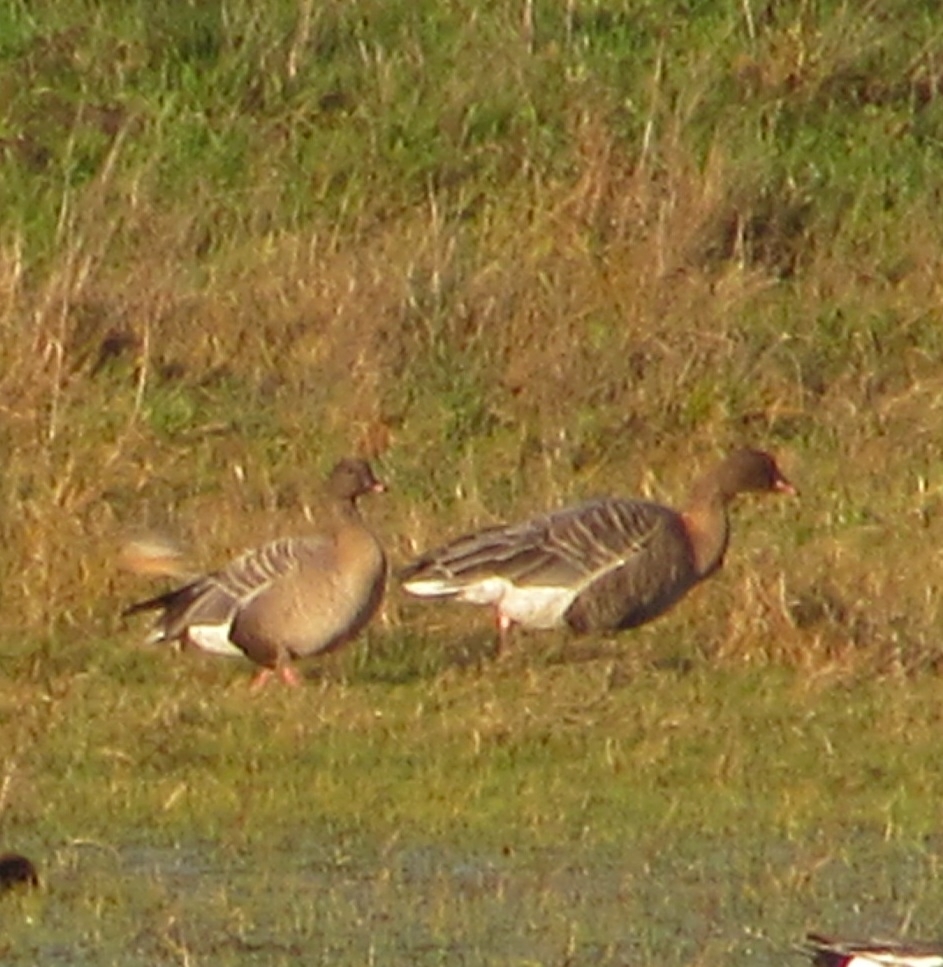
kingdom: Animalia
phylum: Chordata
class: Aves
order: Anseriformes
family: Anatidae
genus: Anser
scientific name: Anser brachyrhynchus
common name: Pink-footed goose
